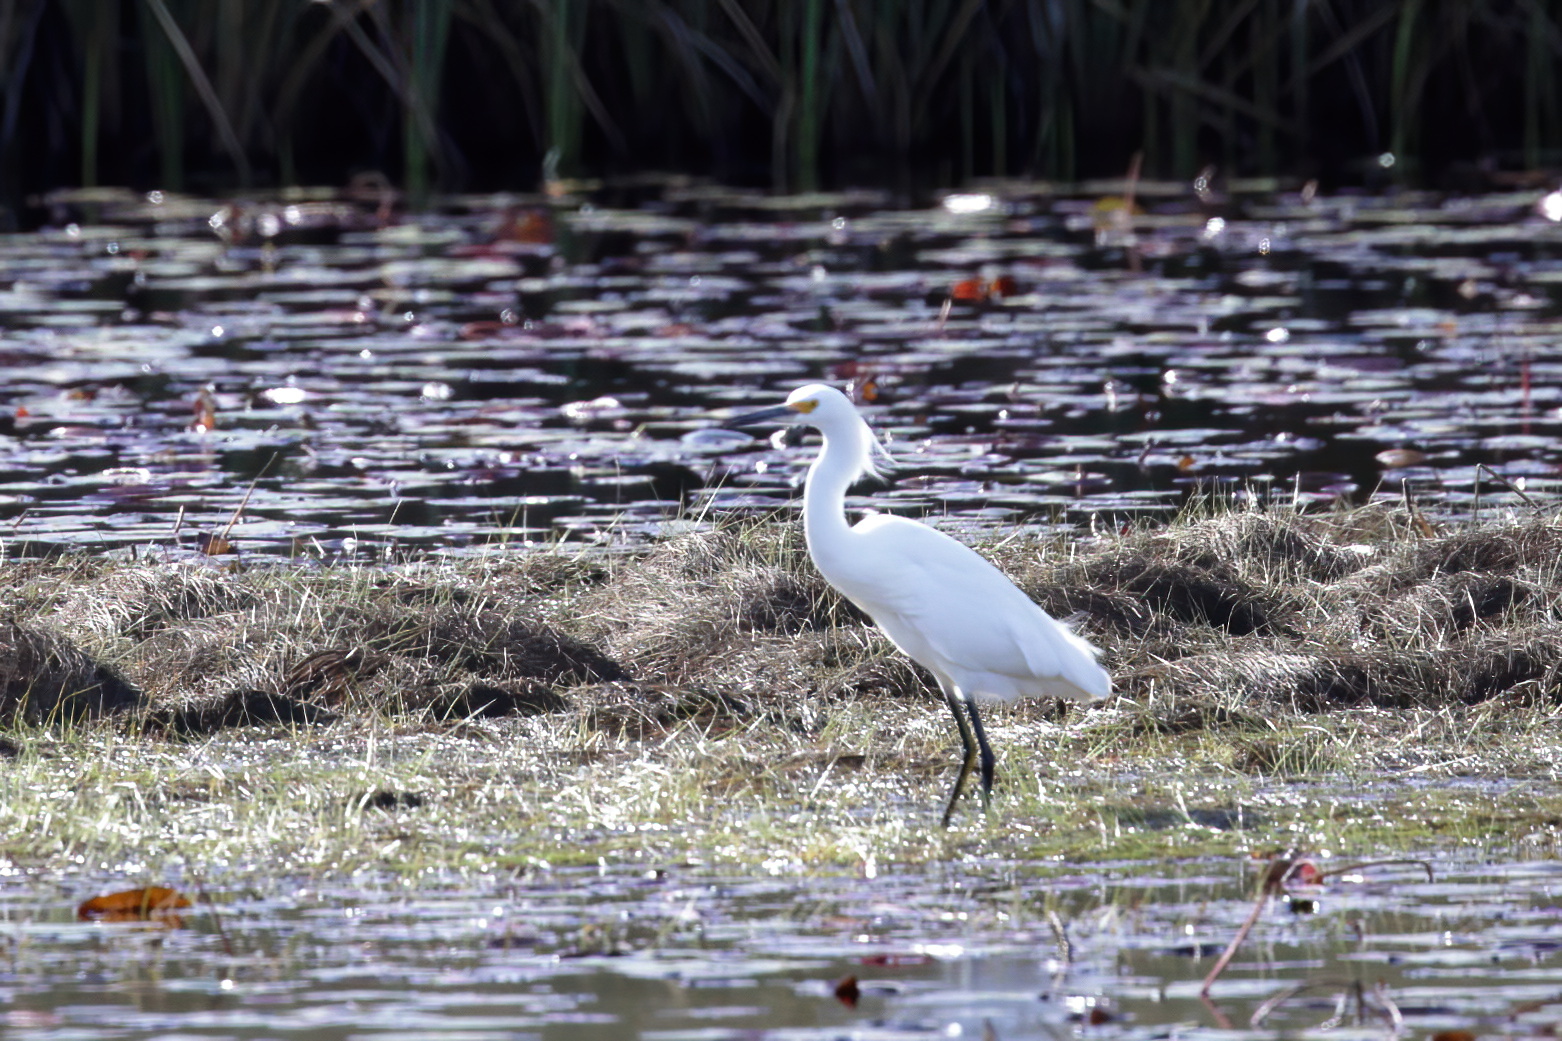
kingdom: Animalia
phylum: Chordata
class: Aves
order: Pelecaniformes
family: Ardeidae
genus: Egretta
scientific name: Egretta thula
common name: Snowy egret
